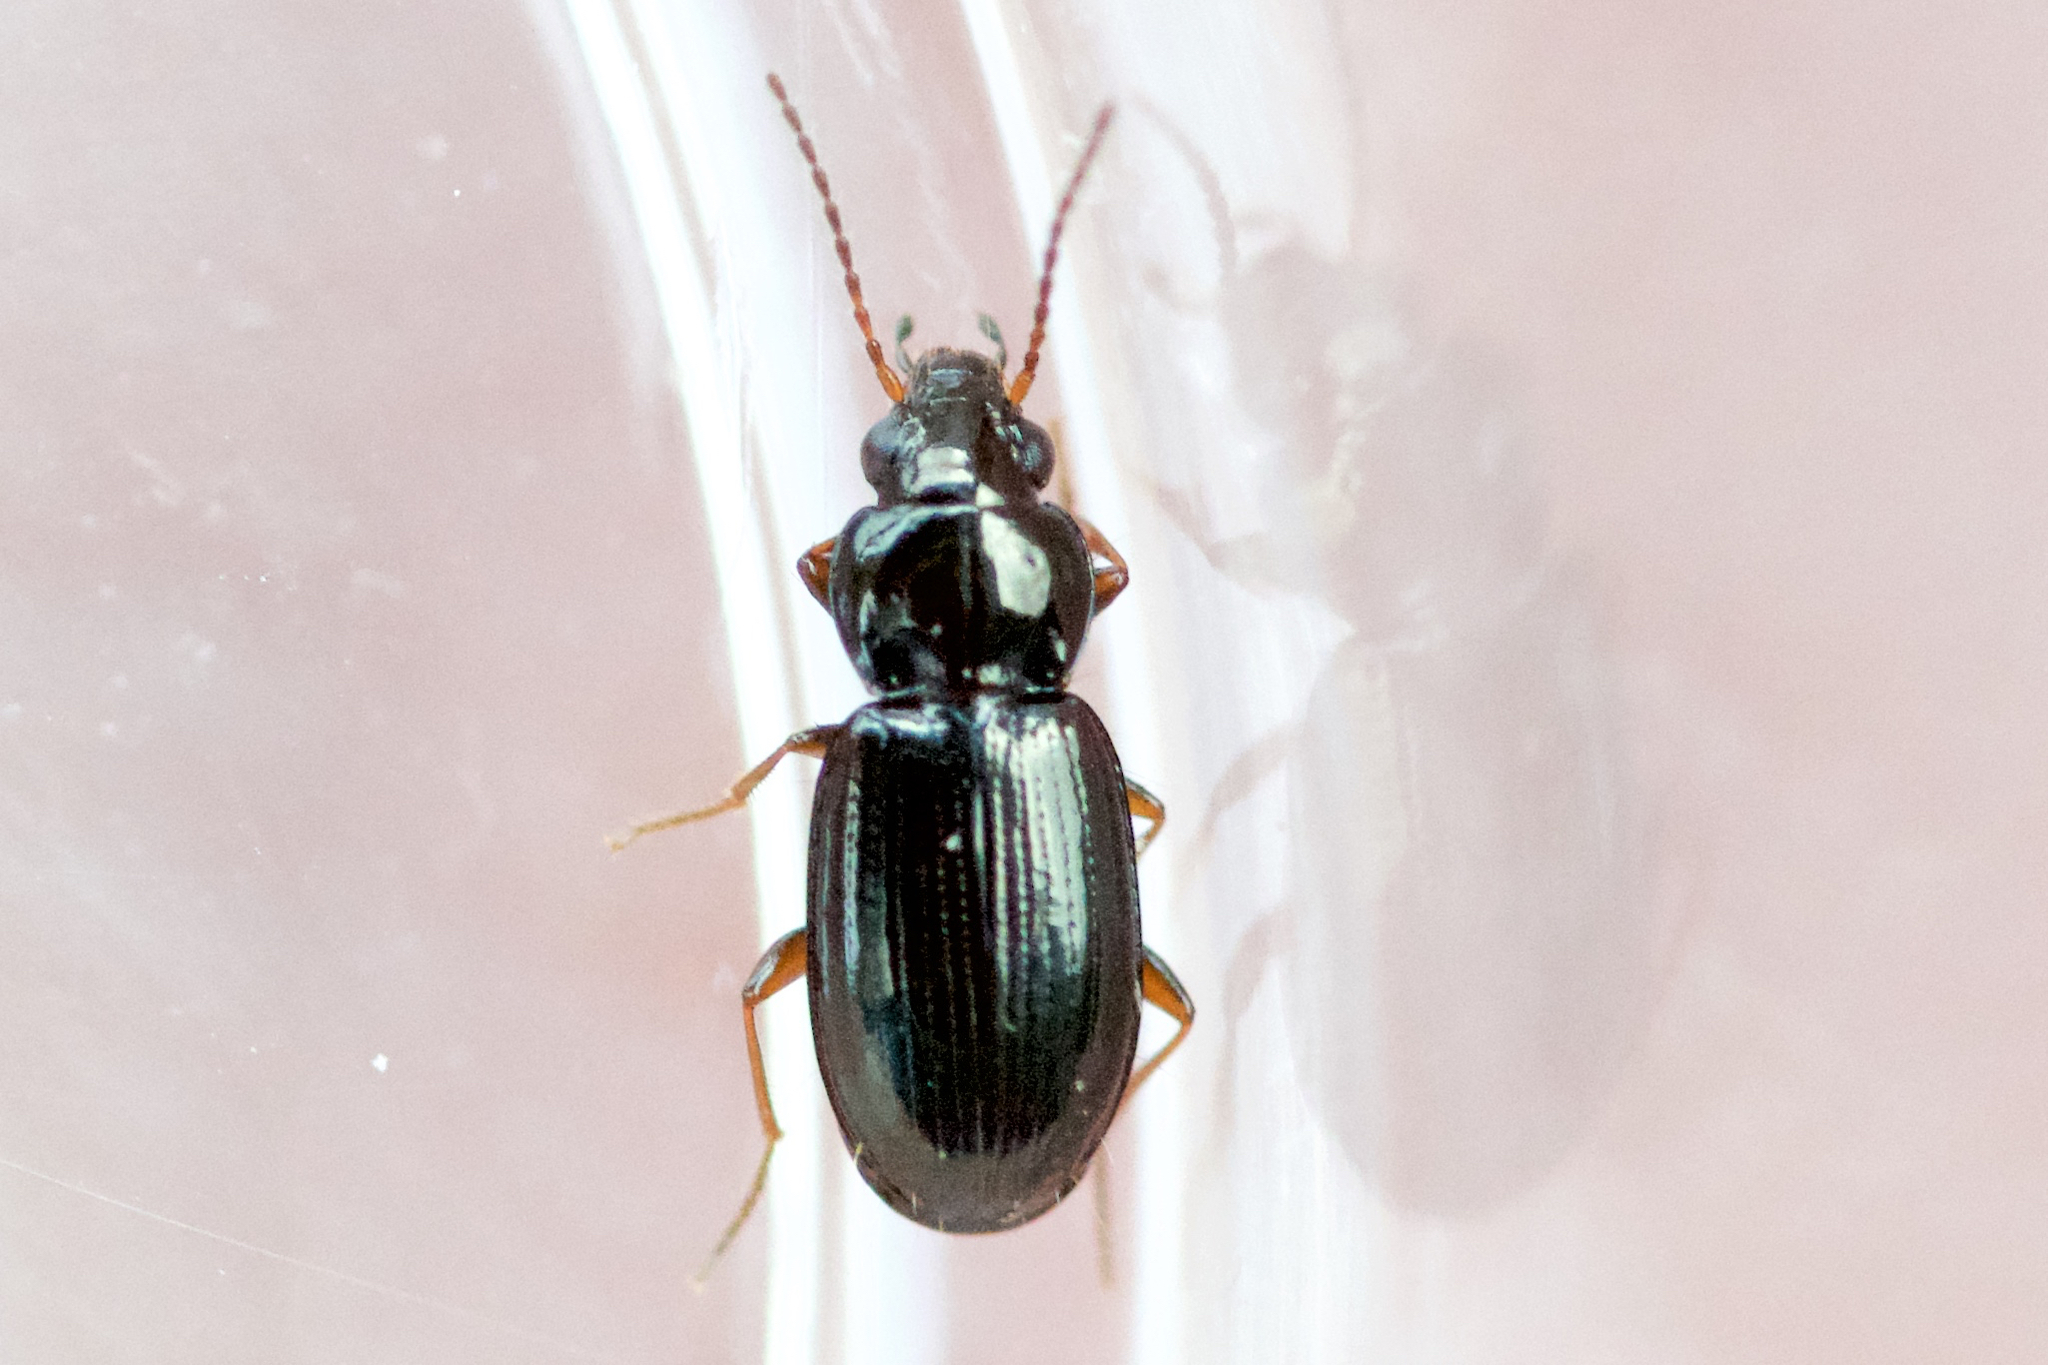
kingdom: Animalia
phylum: Arthropoda
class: Insecta
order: Coleoptera
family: Carabidae
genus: Bembidion
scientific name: Bembidion obtusum
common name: Paris riverbank ground beetle
